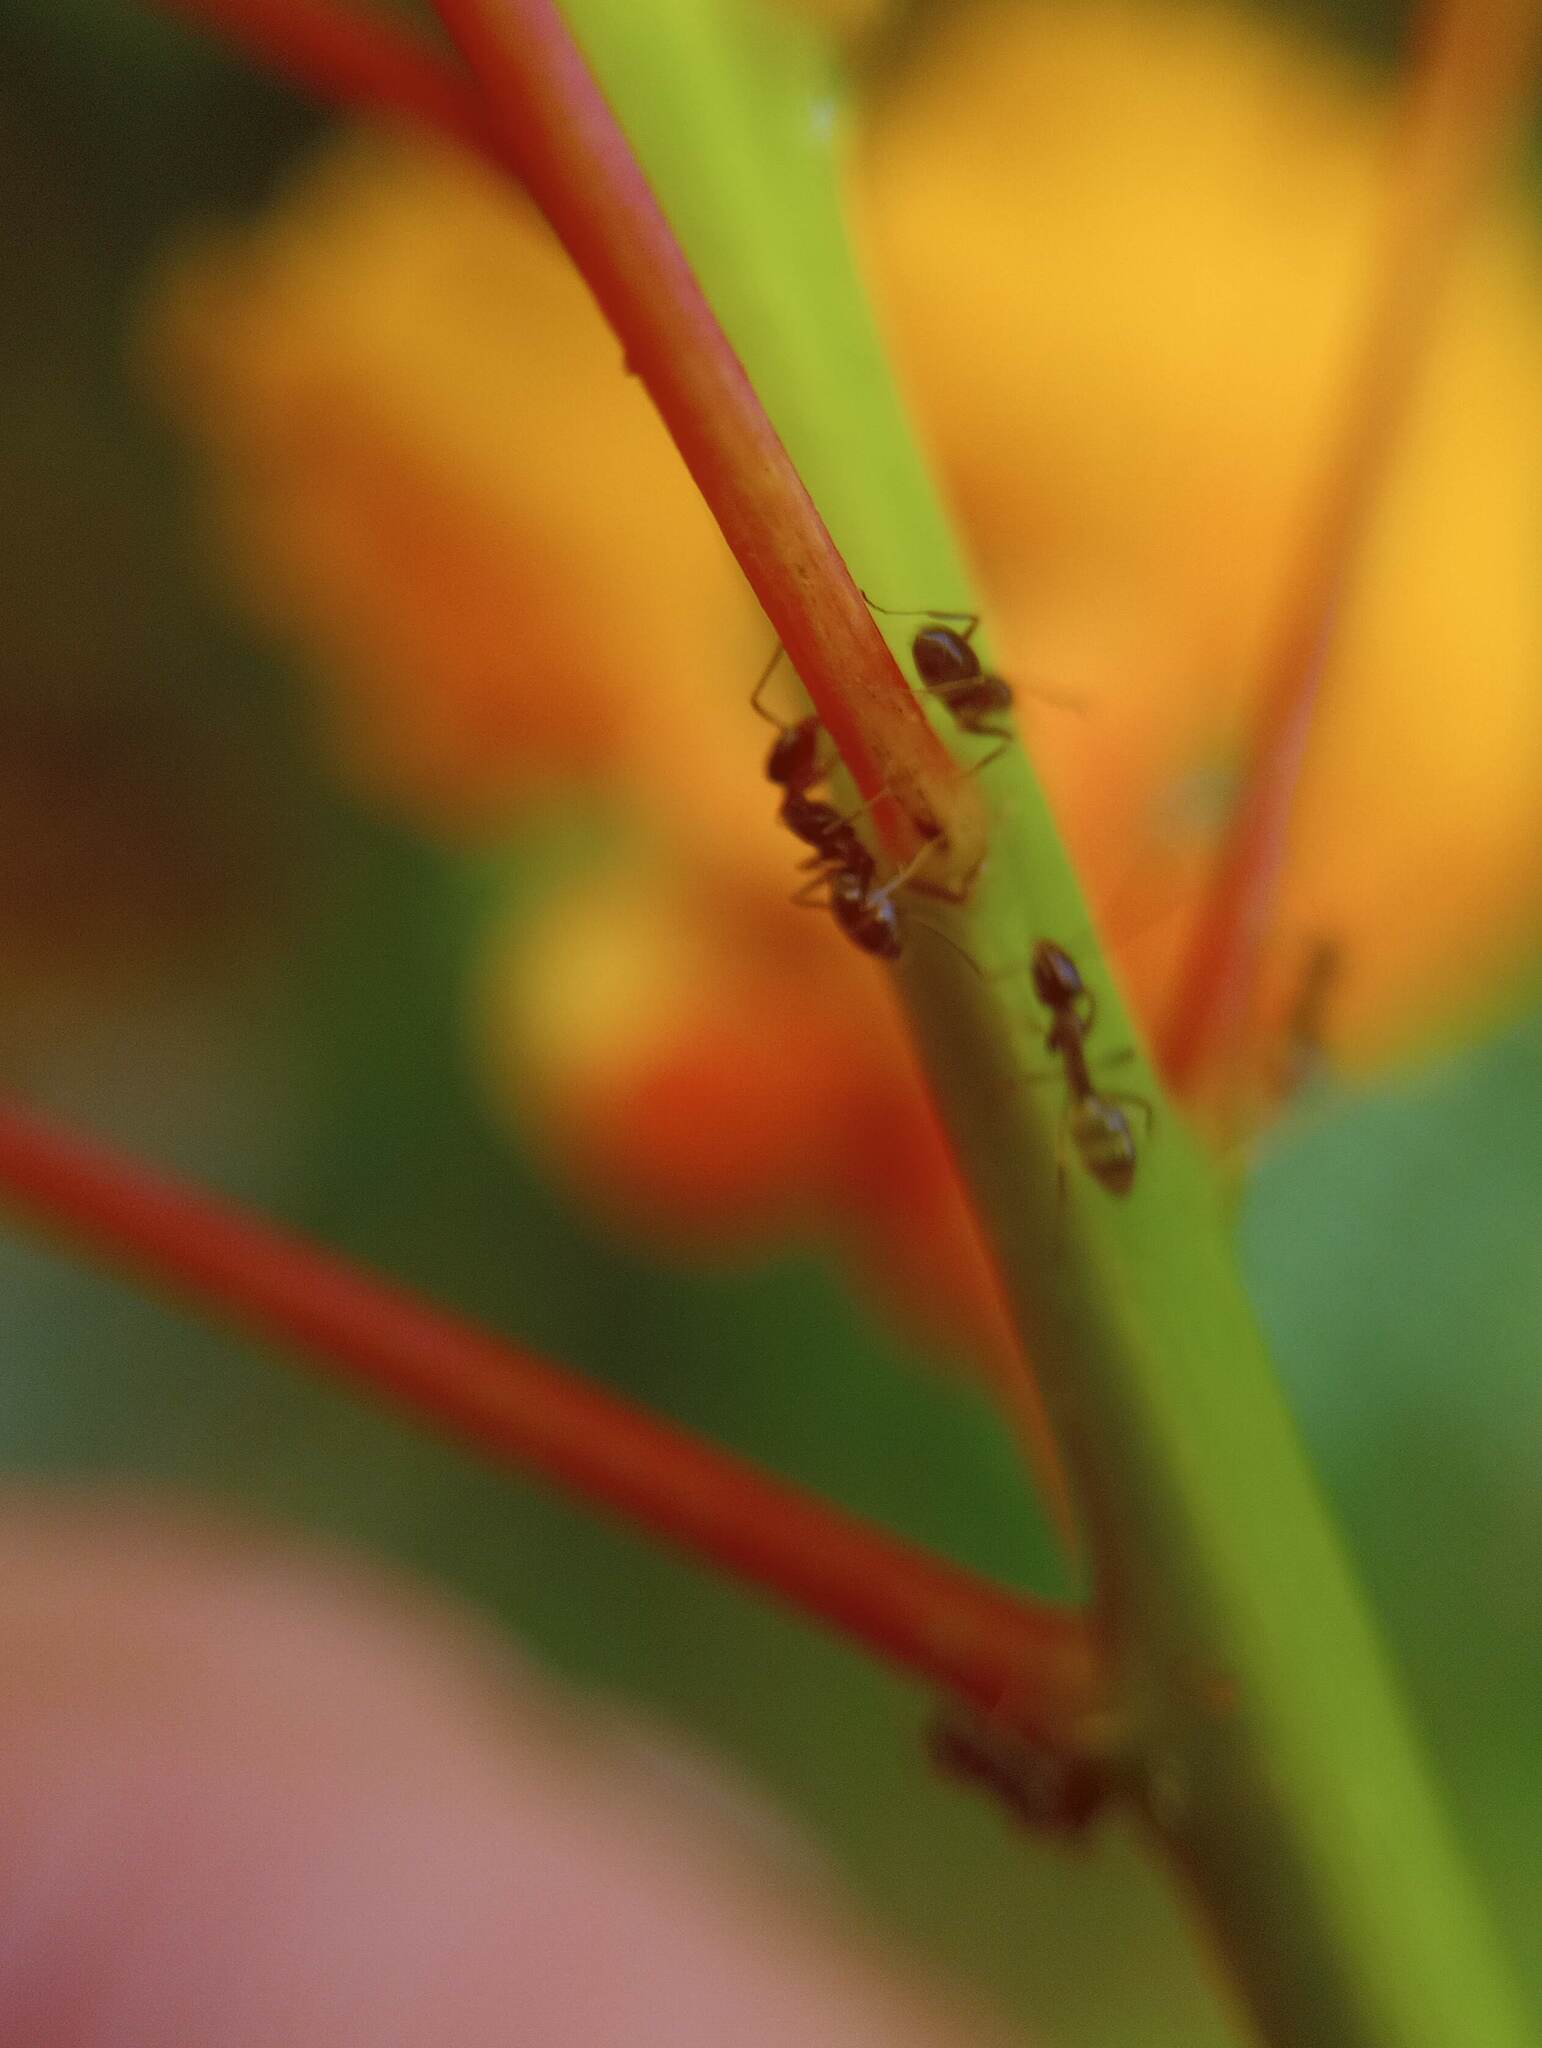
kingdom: Animalia
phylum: Arthropoda
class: Insecta
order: Hymenoptera
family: Formicidae
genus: Linepithema
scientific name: Linepithema humile
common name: Argentine ant
